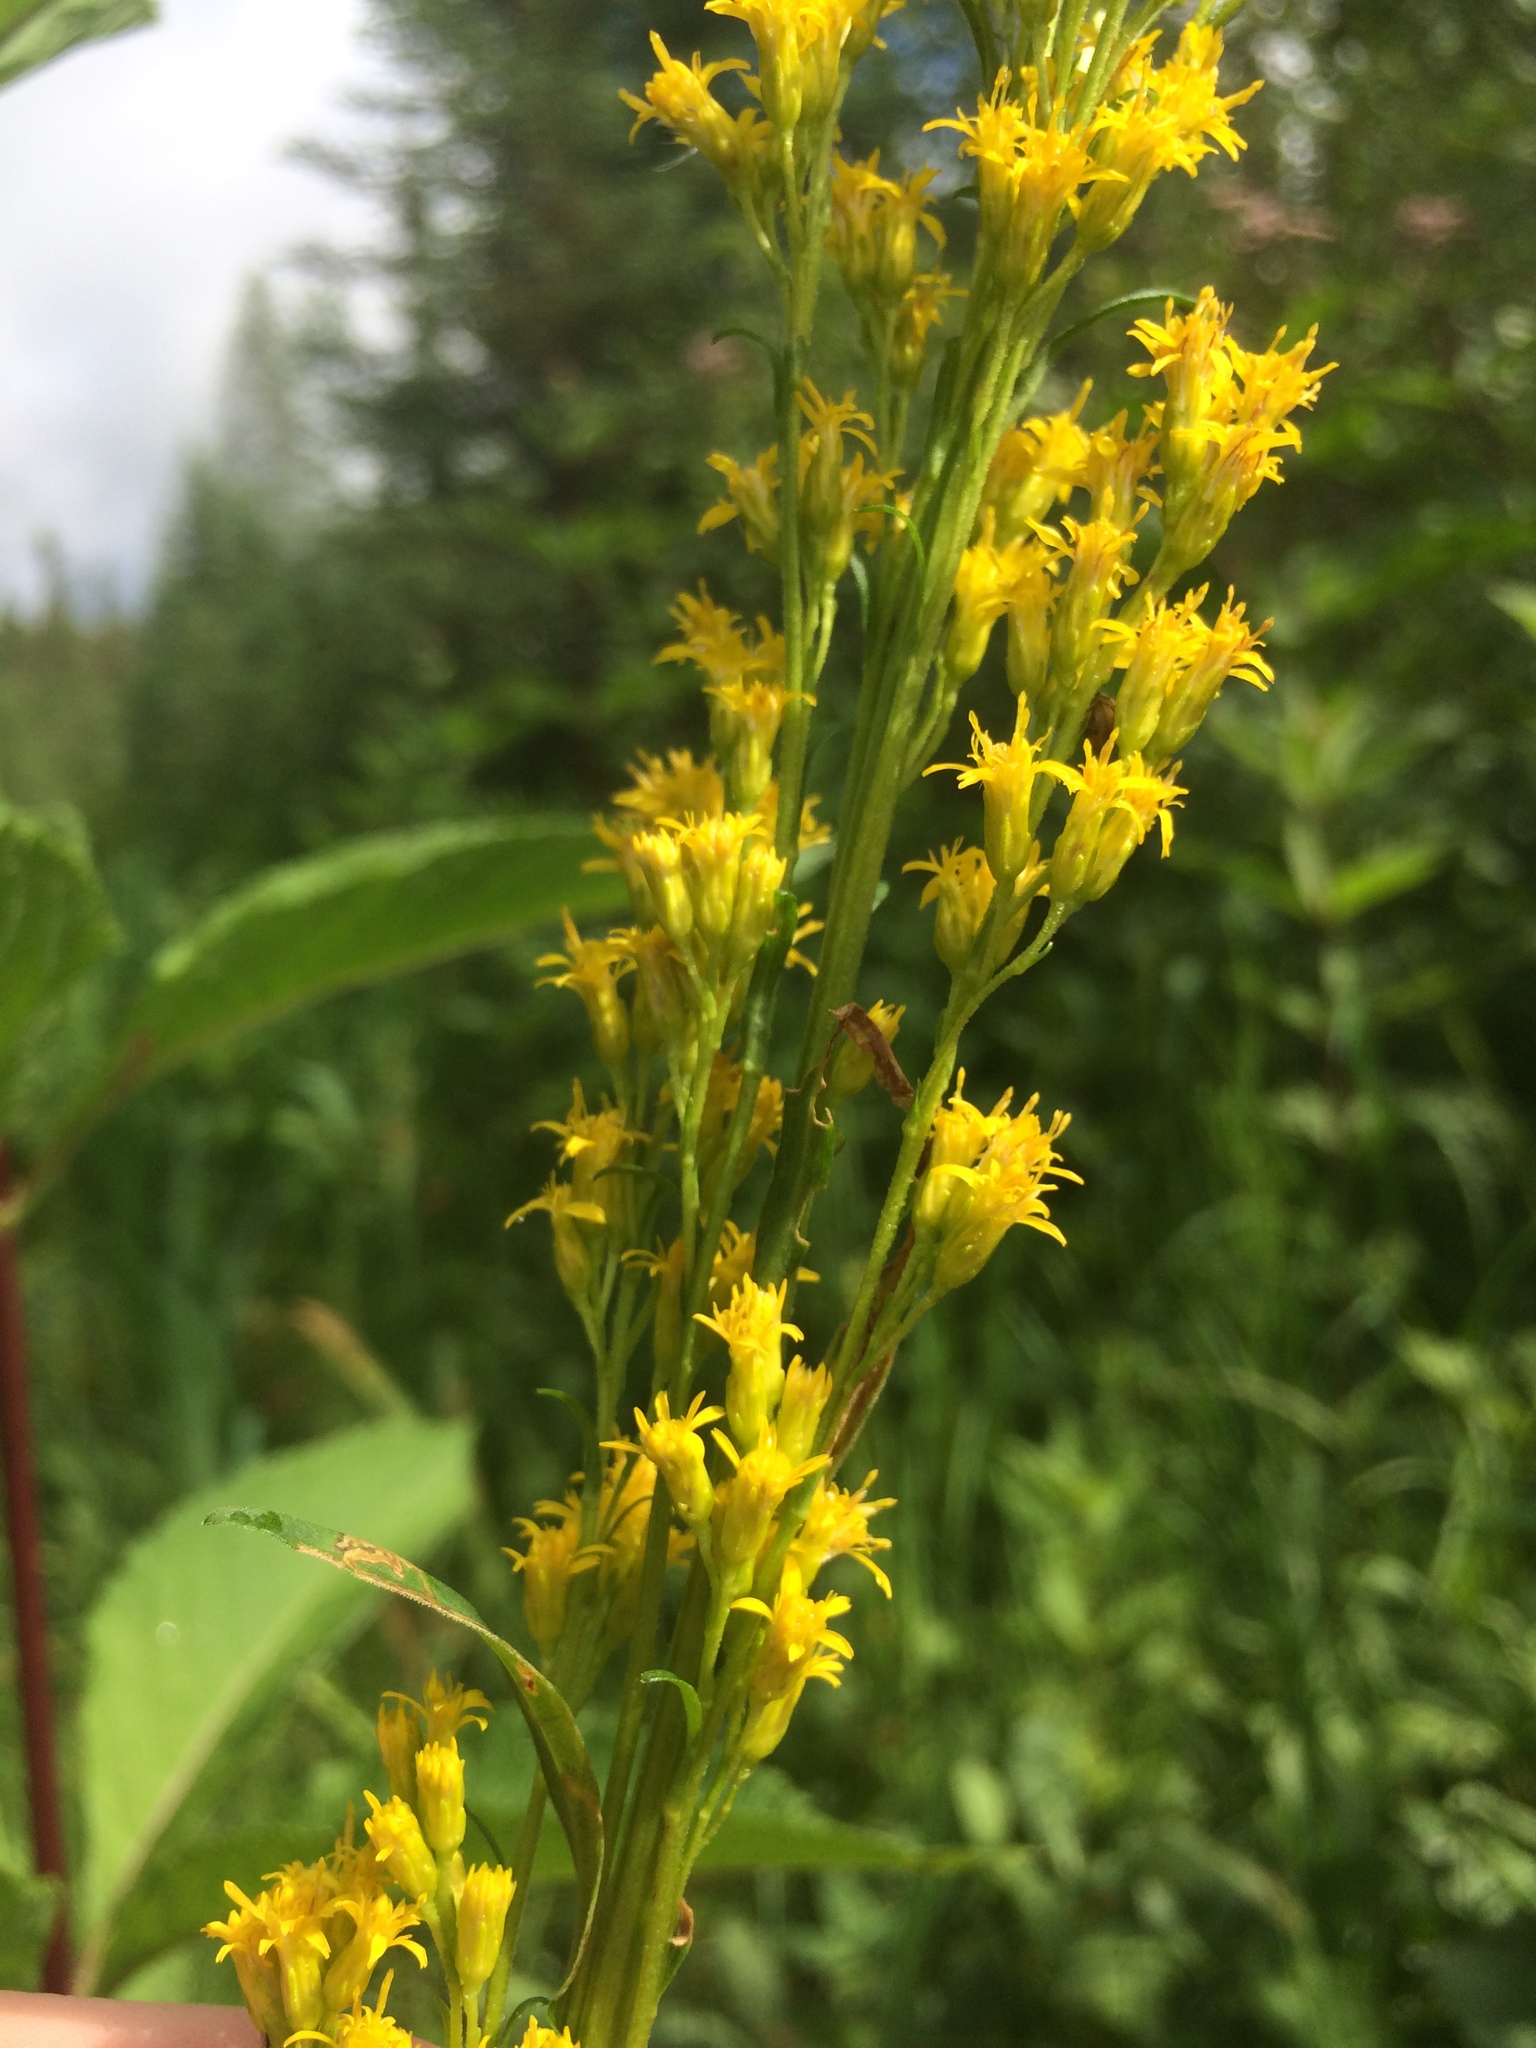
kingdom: Plantae
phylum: Tracheophyta
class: Magnoliopsida
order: Asterales
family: Asteraceae
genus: Solidago
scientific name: Solidago uliginosa
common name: Bog goldenrod
